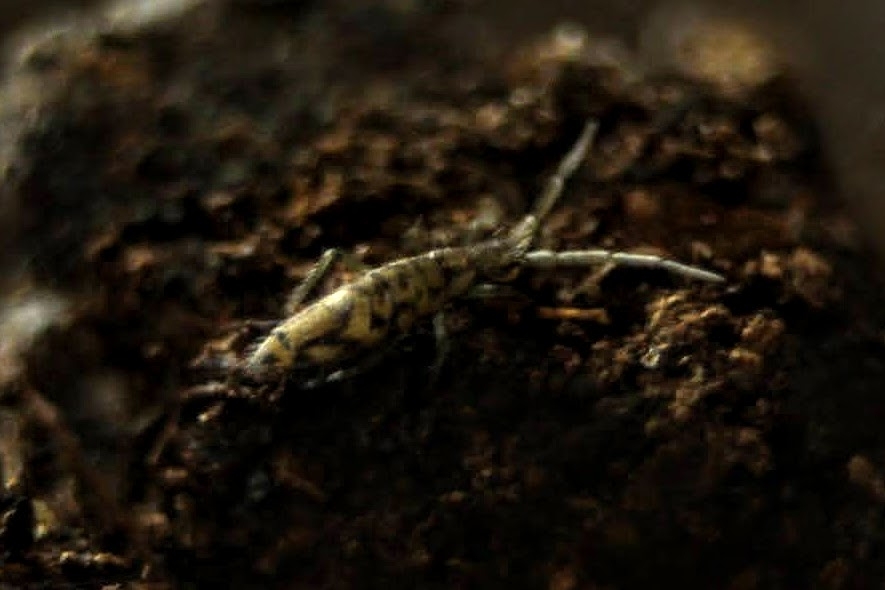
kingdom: Animalia
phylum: Arthropoda
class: Collembola
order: Entomobryomorpha
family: Entomobryidae
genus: Entomobrya
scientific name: Entomobrya intermedia
